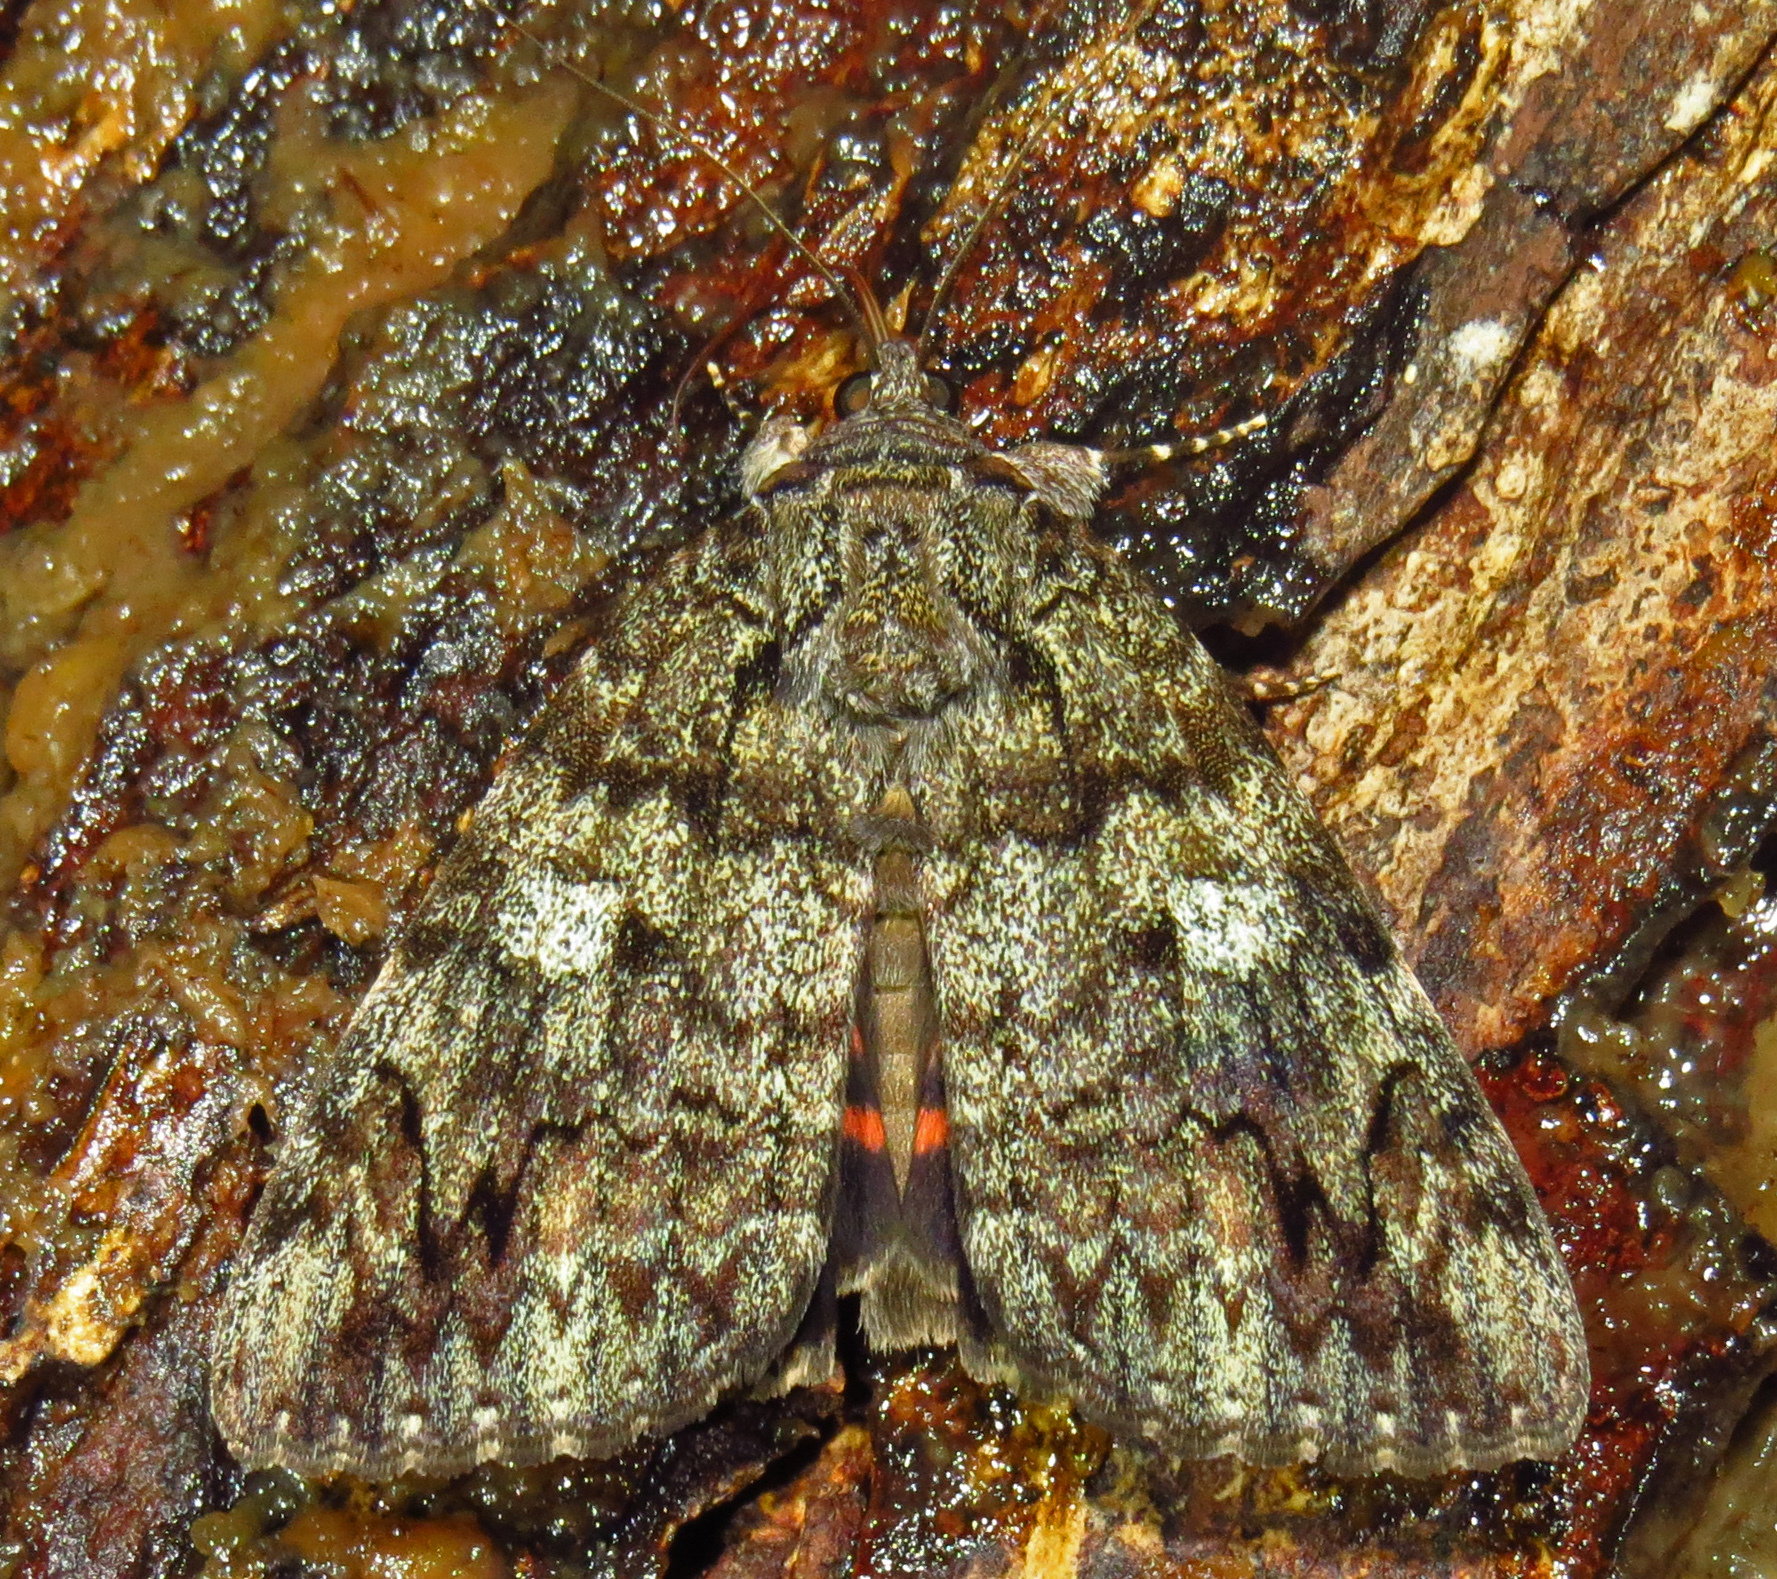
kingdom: Animalia
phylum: Arthropoda
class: Insecta
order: Lepidoptera
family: Erebidae
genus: Catocala
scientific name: Catocala ilia
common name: Ilia underwing
